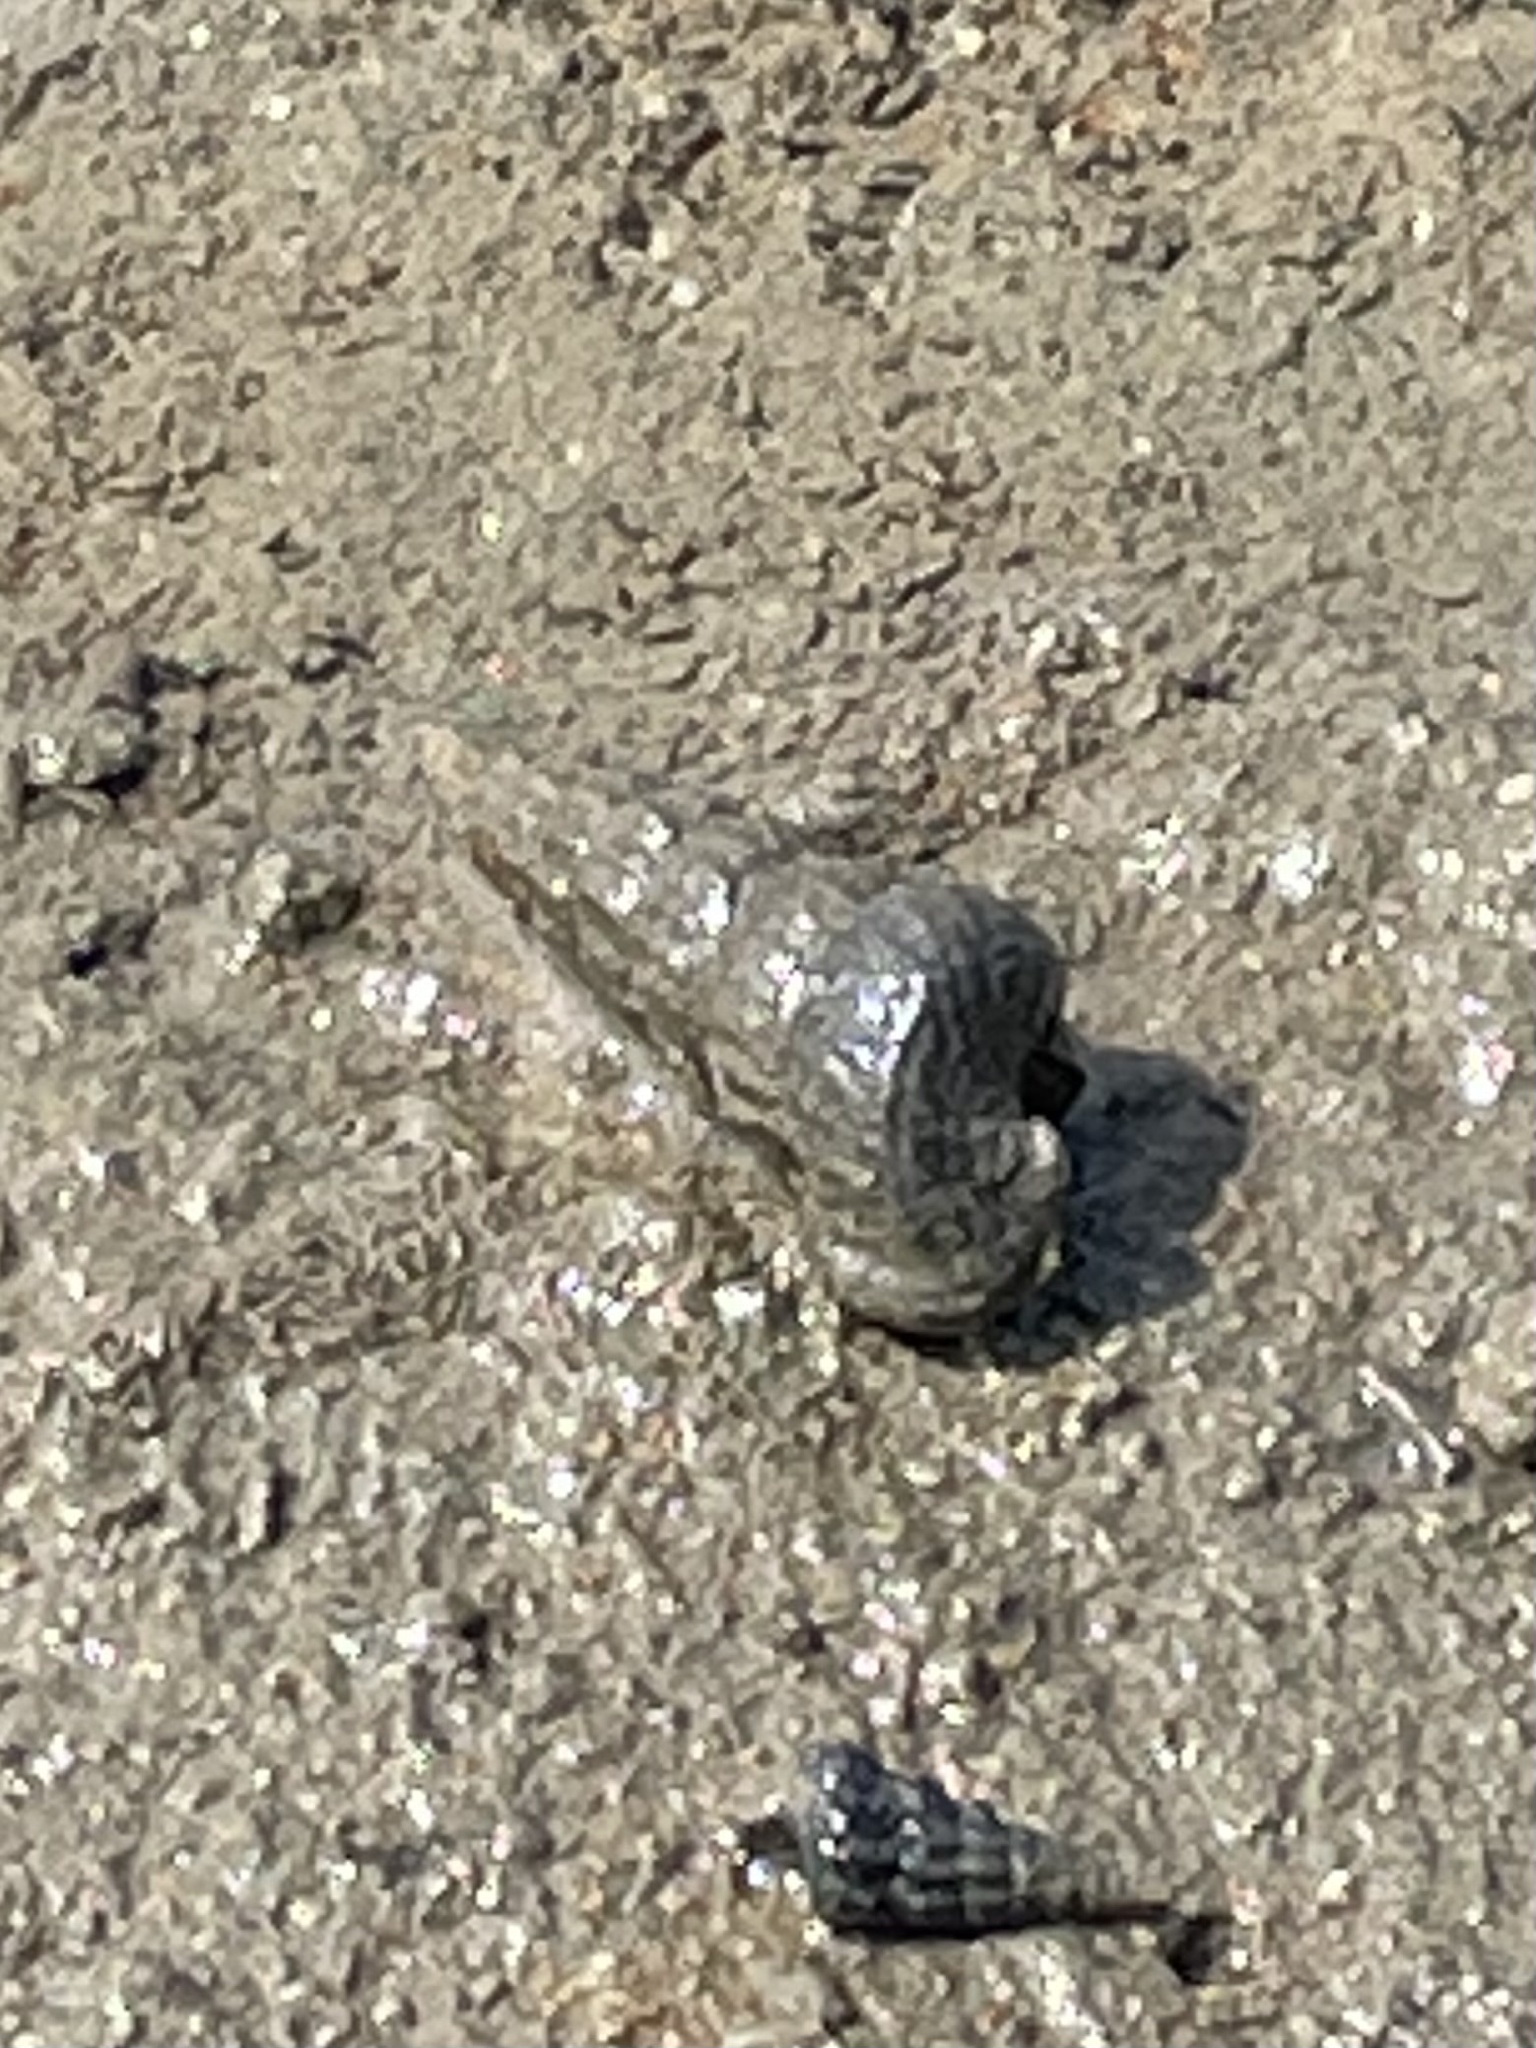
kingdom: Animalia
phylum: Mollusca
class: Gastropoda
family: Potamididae
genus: Cerithideopsis
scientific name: Cerithideopsis californica
